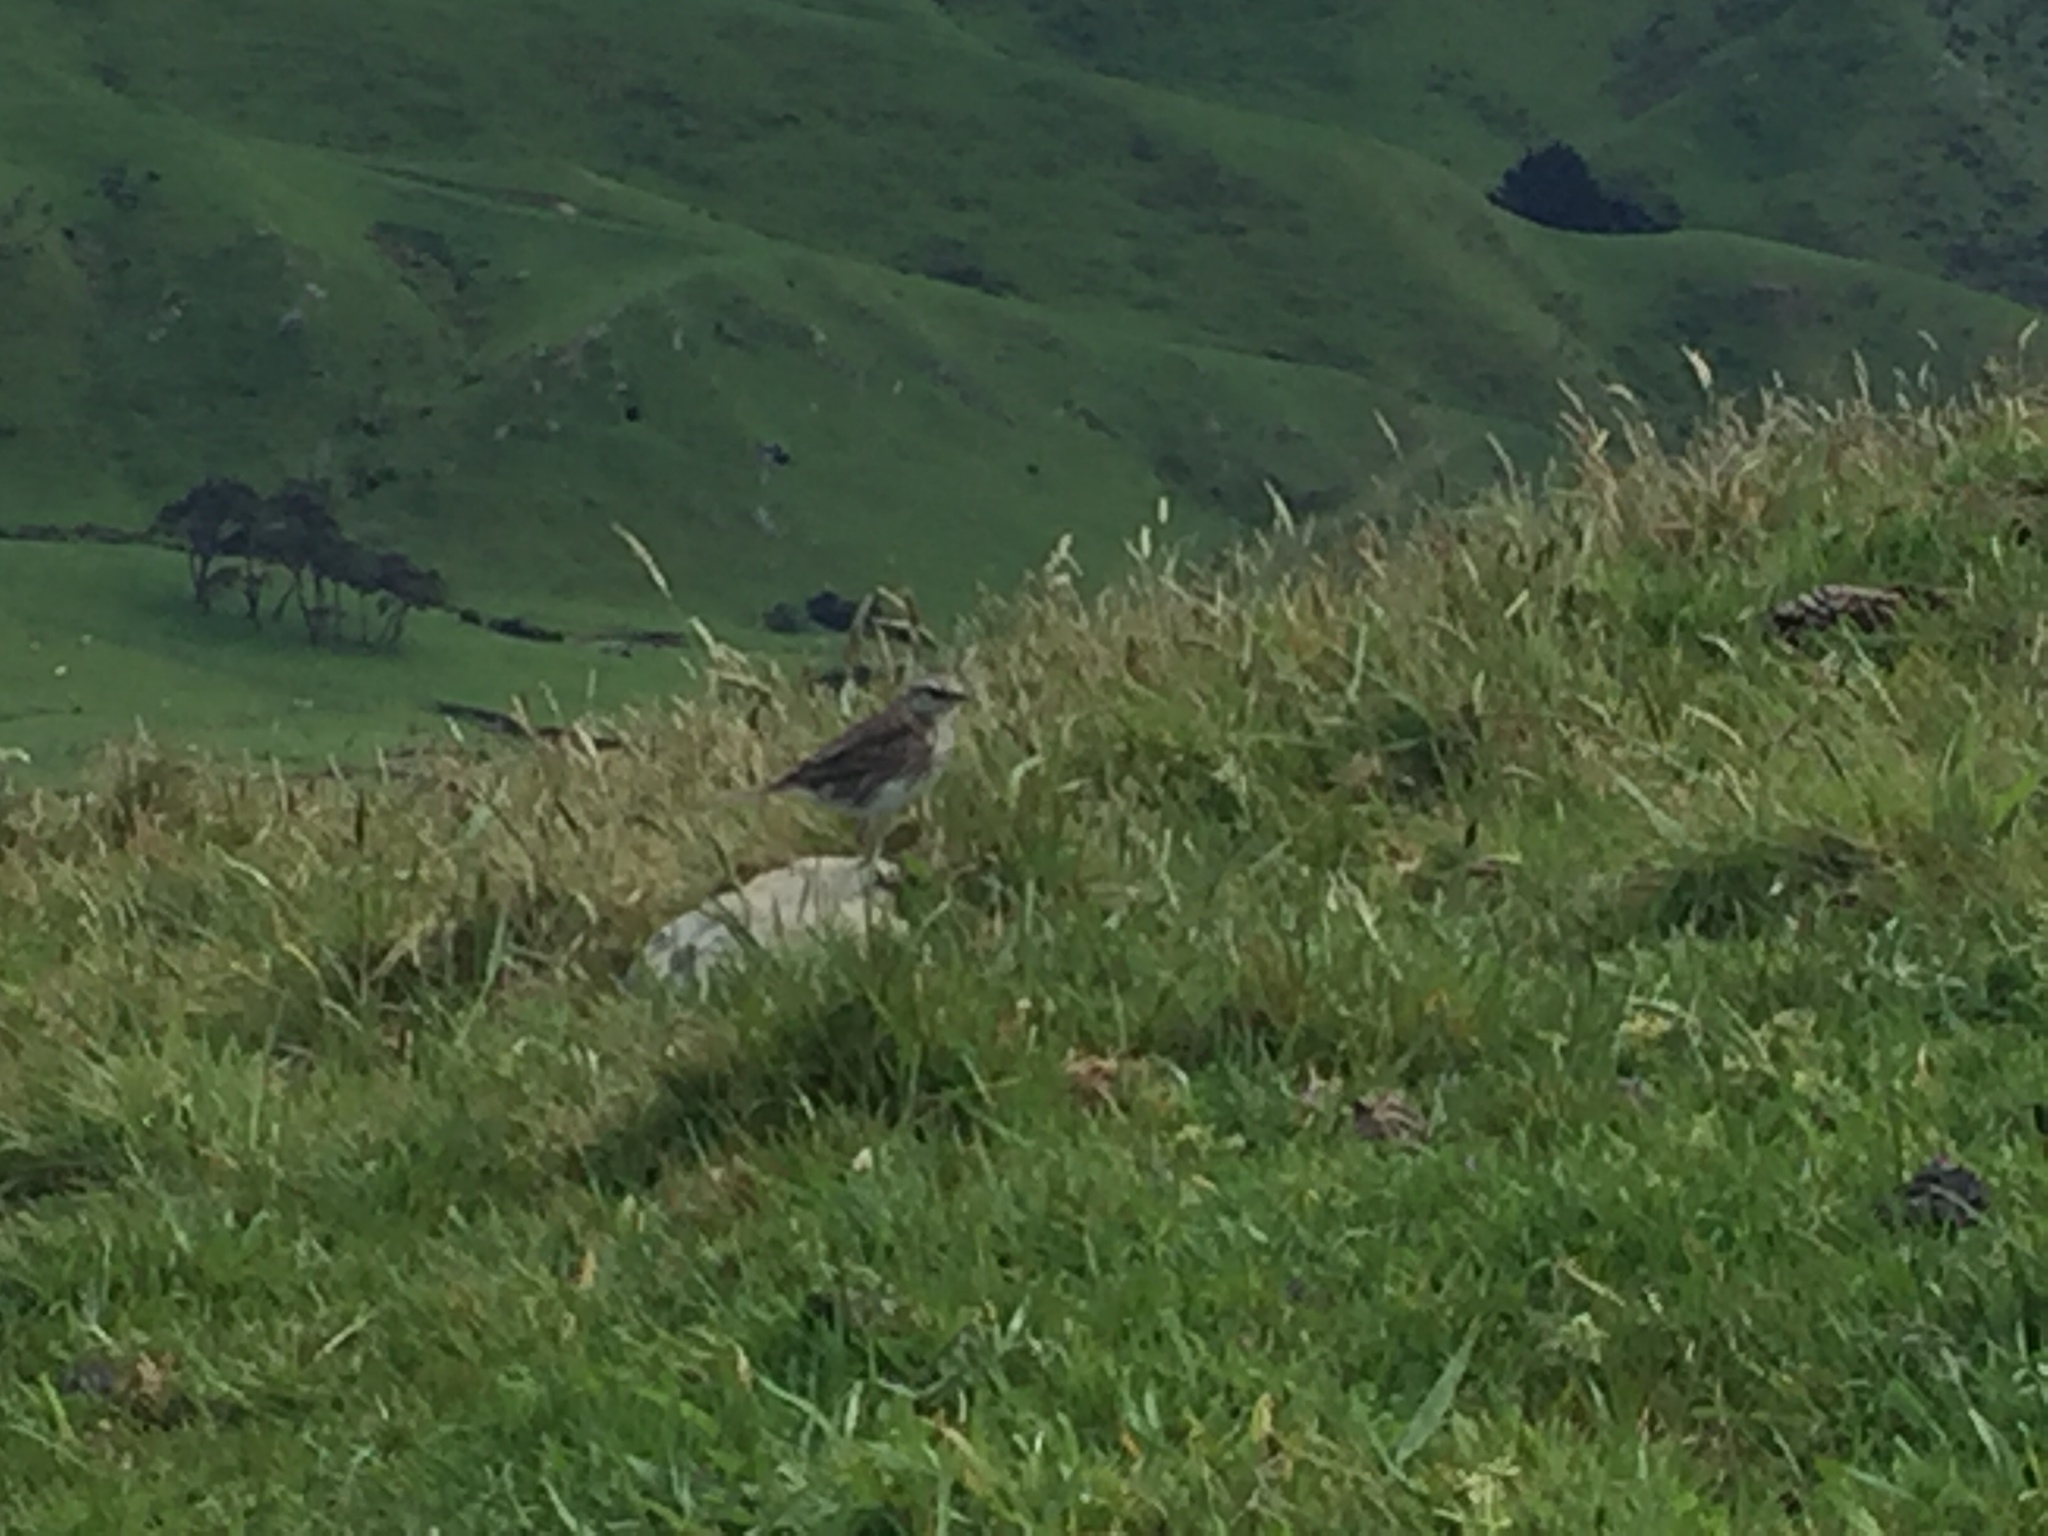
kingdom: Animalia
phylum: Chordata
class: Aves
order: Passeriformes
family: Motacillidae
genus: Anthus
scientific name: Anthus novaeseelandiae
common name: New zealand pipit
